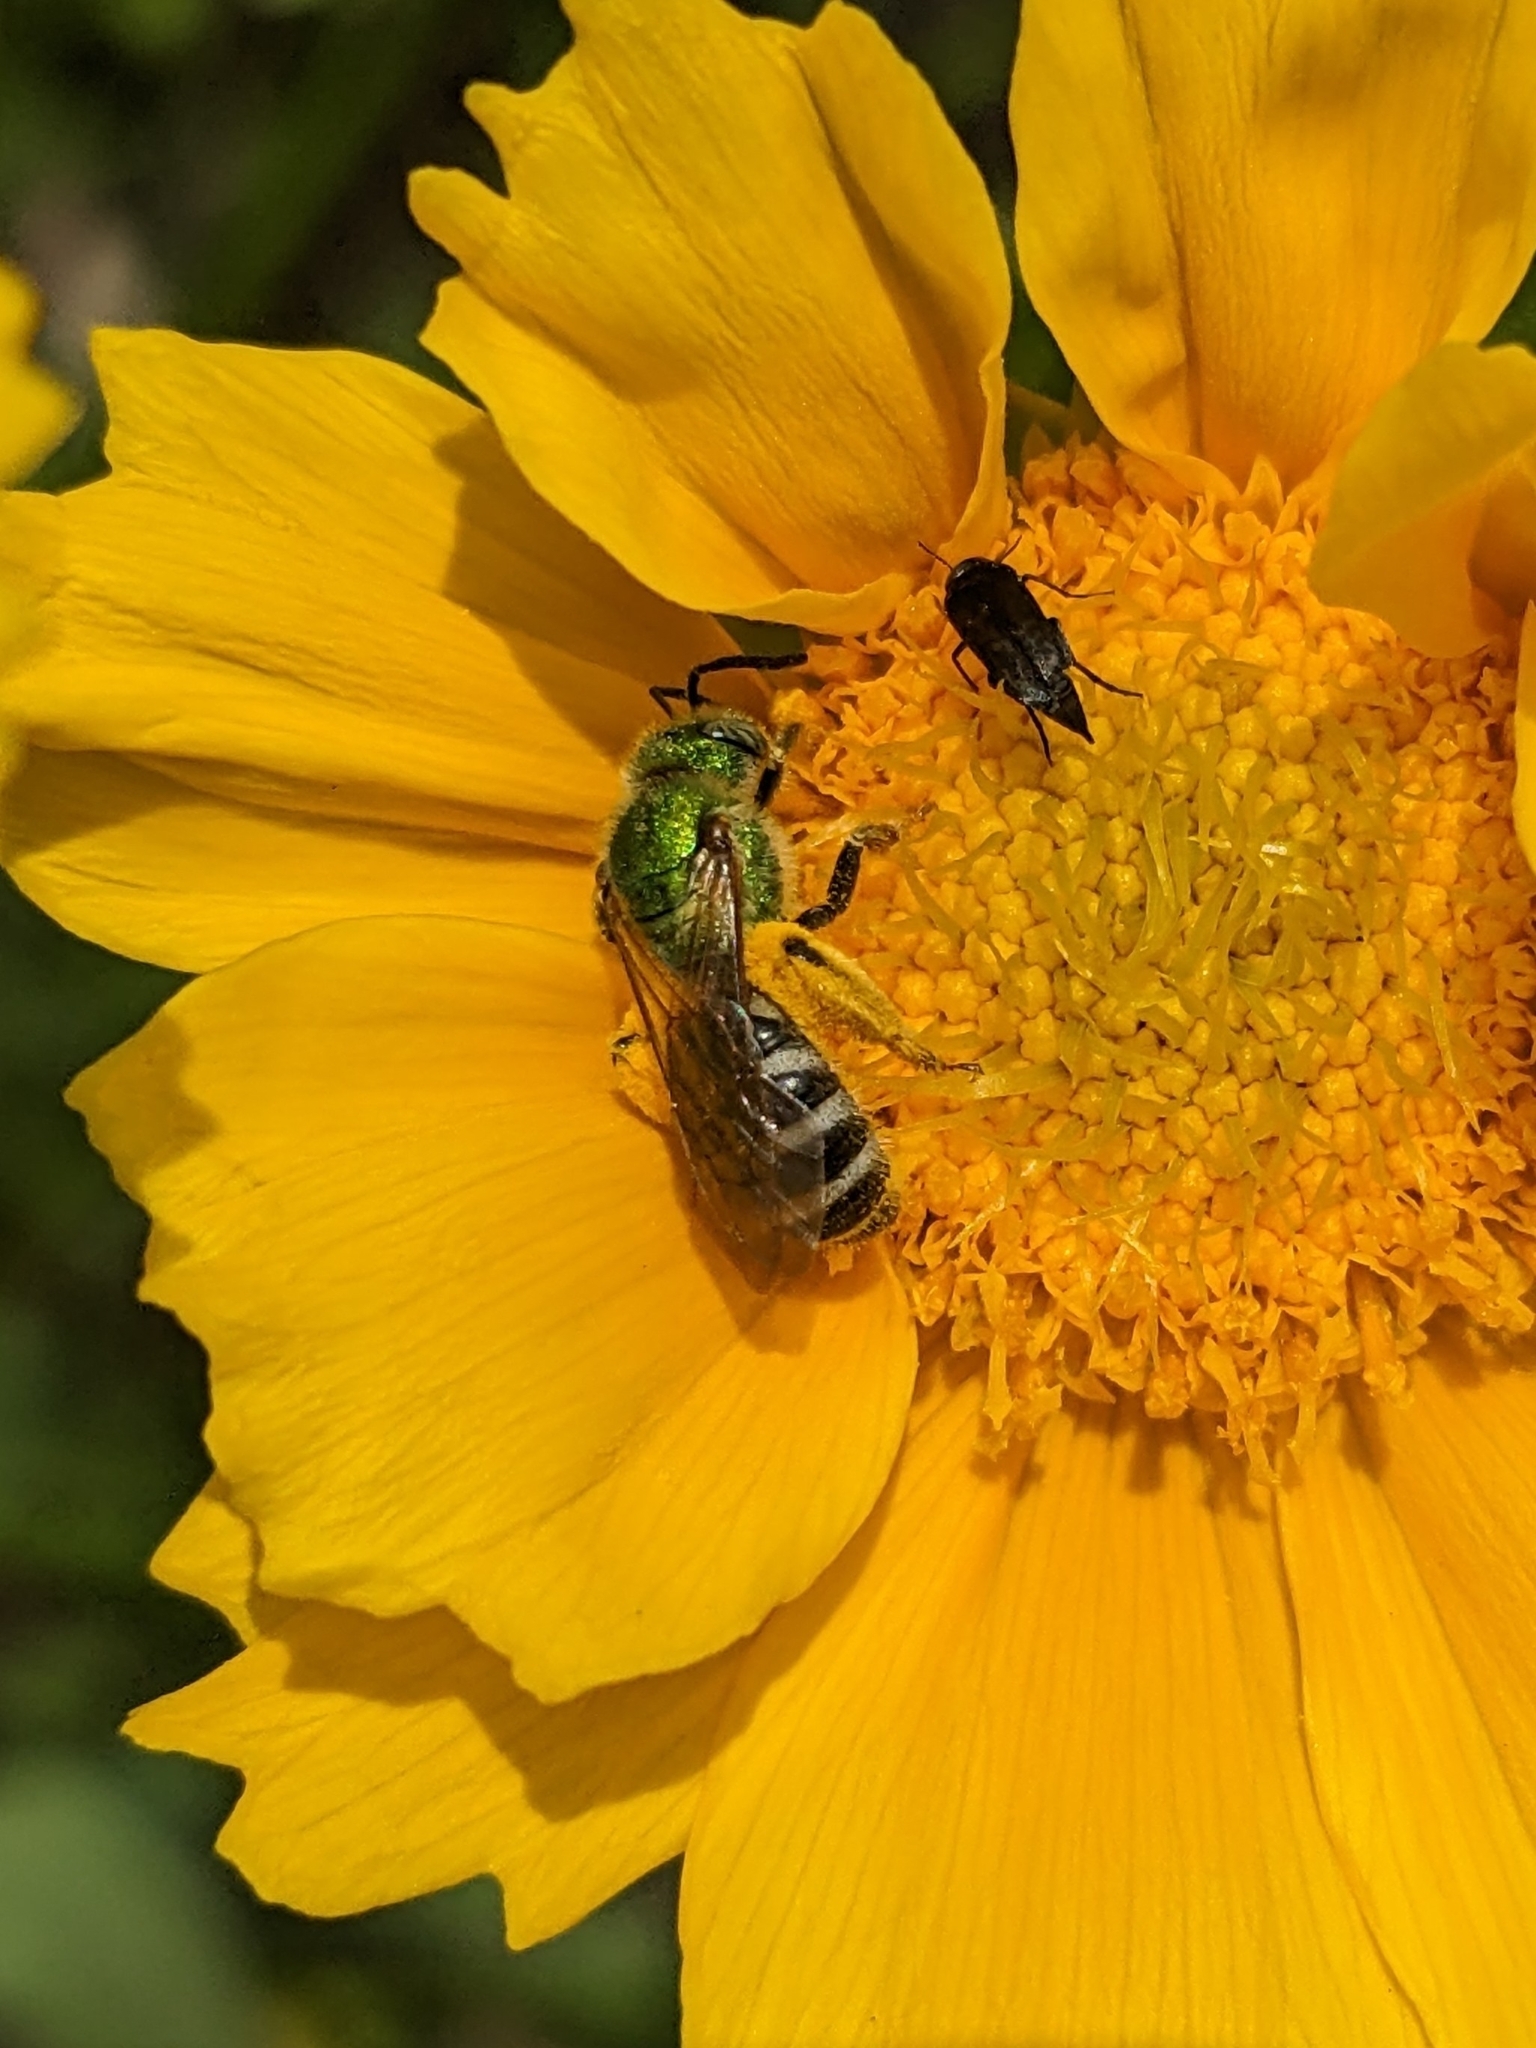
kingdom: Animalia
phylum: Arthropoda
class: Insecta
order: Hymenoptera
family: Halictidae
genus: Agapostemon
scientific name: Agapostemon virescens
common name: Bicolored striped sweat bee
